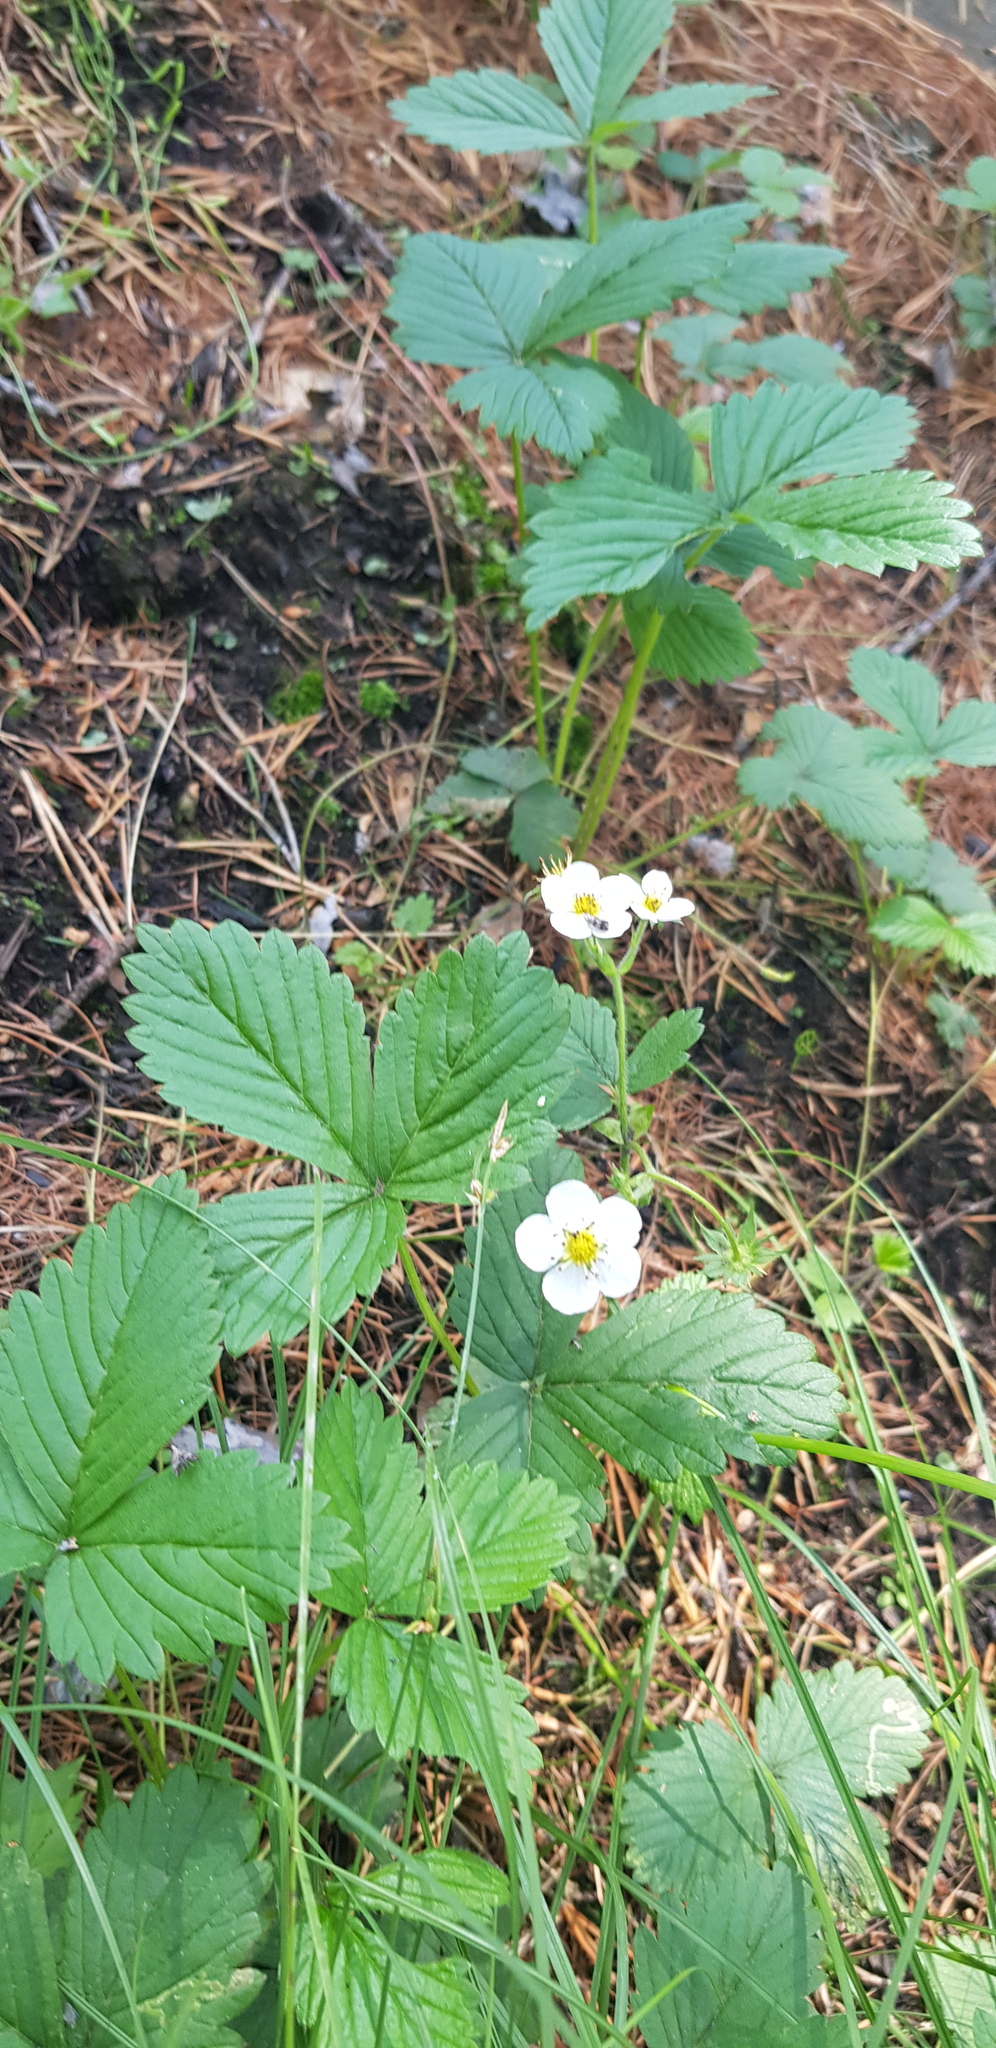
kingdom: Plantae
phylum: Tracheophyta
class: Magnoliopsida
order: Rosales
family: Rosaceae
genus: Fragaria
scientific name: Fragaria orientalis
